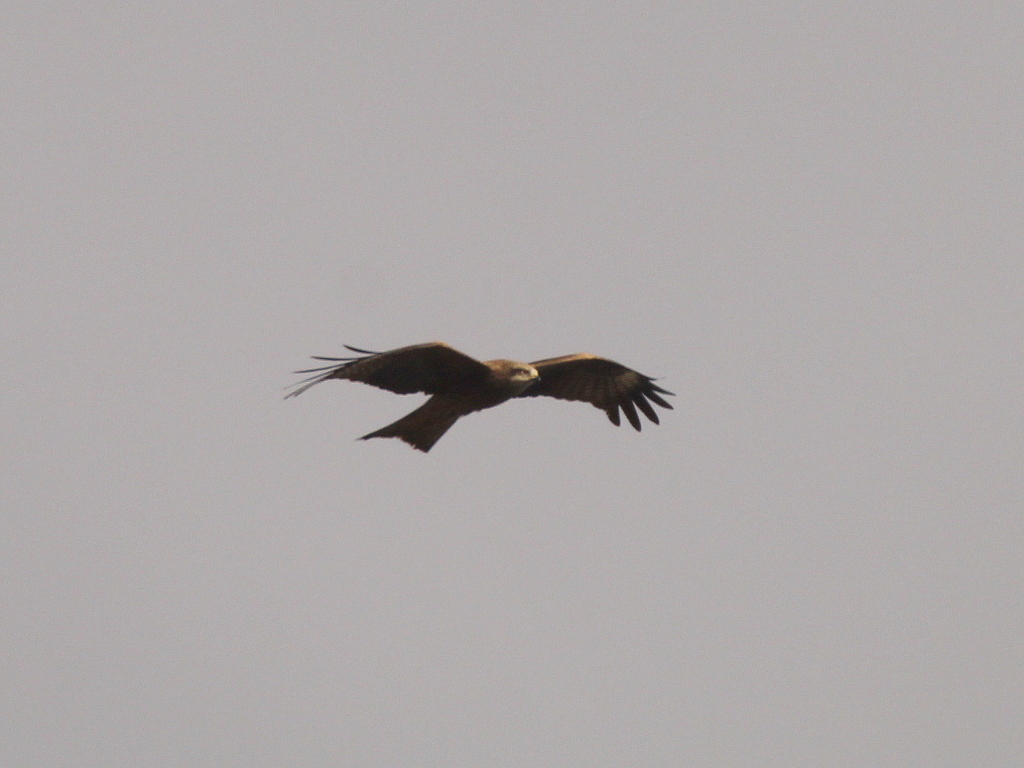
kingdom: Animalia
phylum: Chordata
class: Aves
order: Accipitriformes
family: Accipitridae
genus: Milvus
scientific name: Milvus migrans
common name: Black kite
